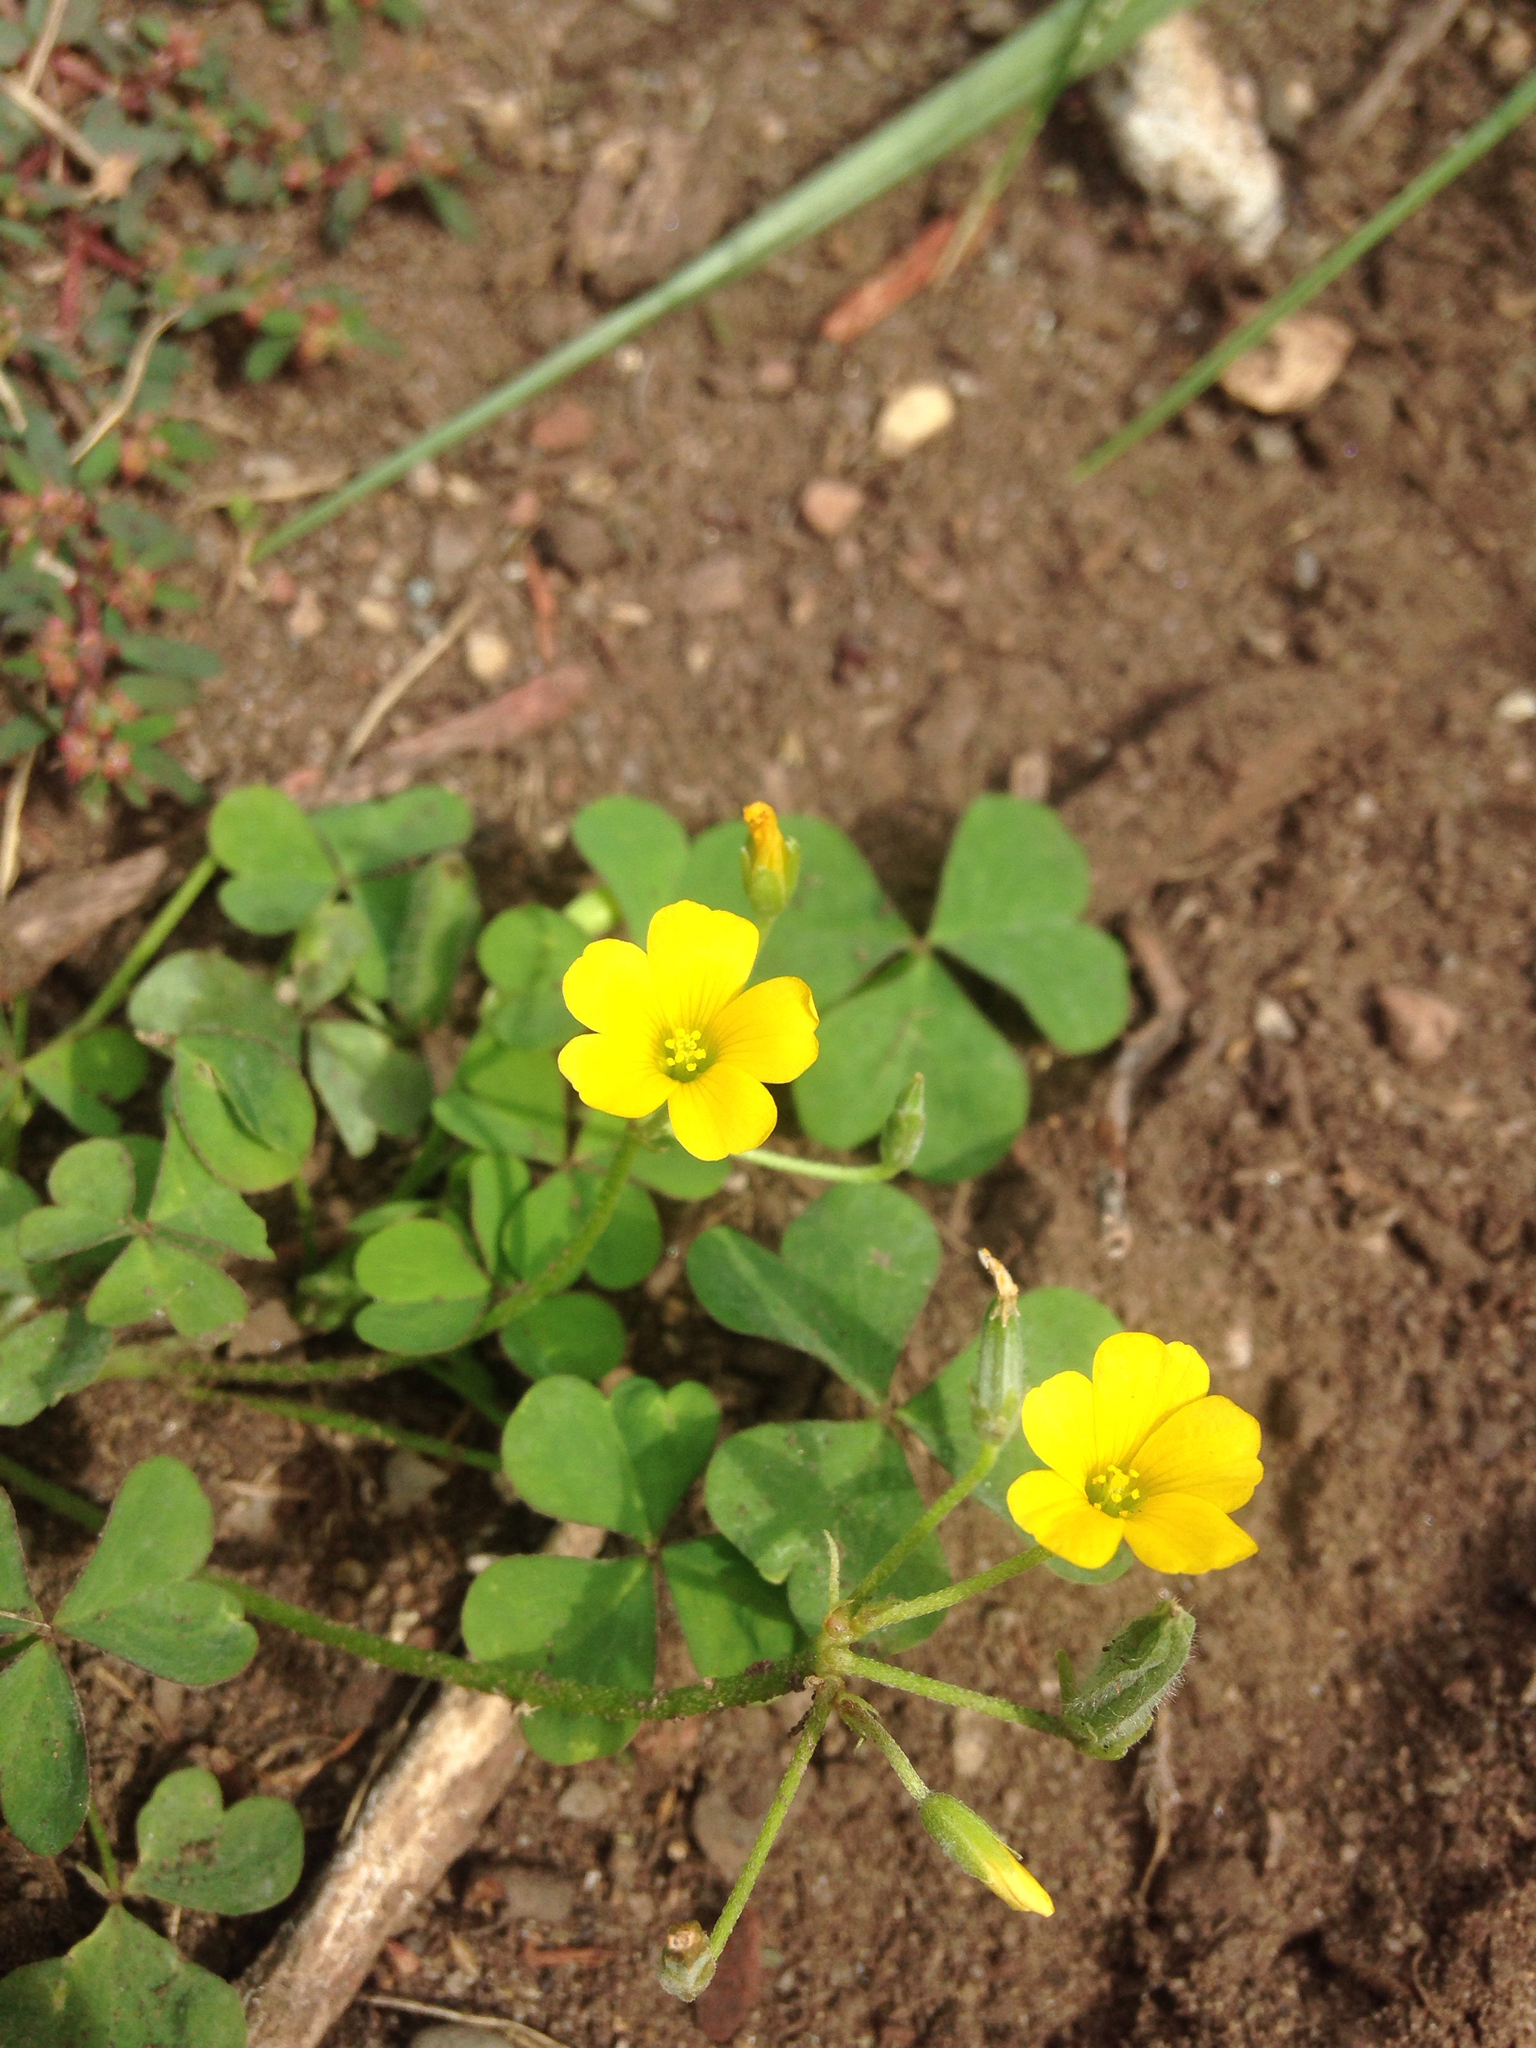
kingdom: Plantae
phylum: Tracheophyta
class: Magnoliopsida
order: Oxalidales
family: Oxalidaceae
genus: Oxalis
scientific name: Oxalis stricta
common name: Upright yellow-sorrel
